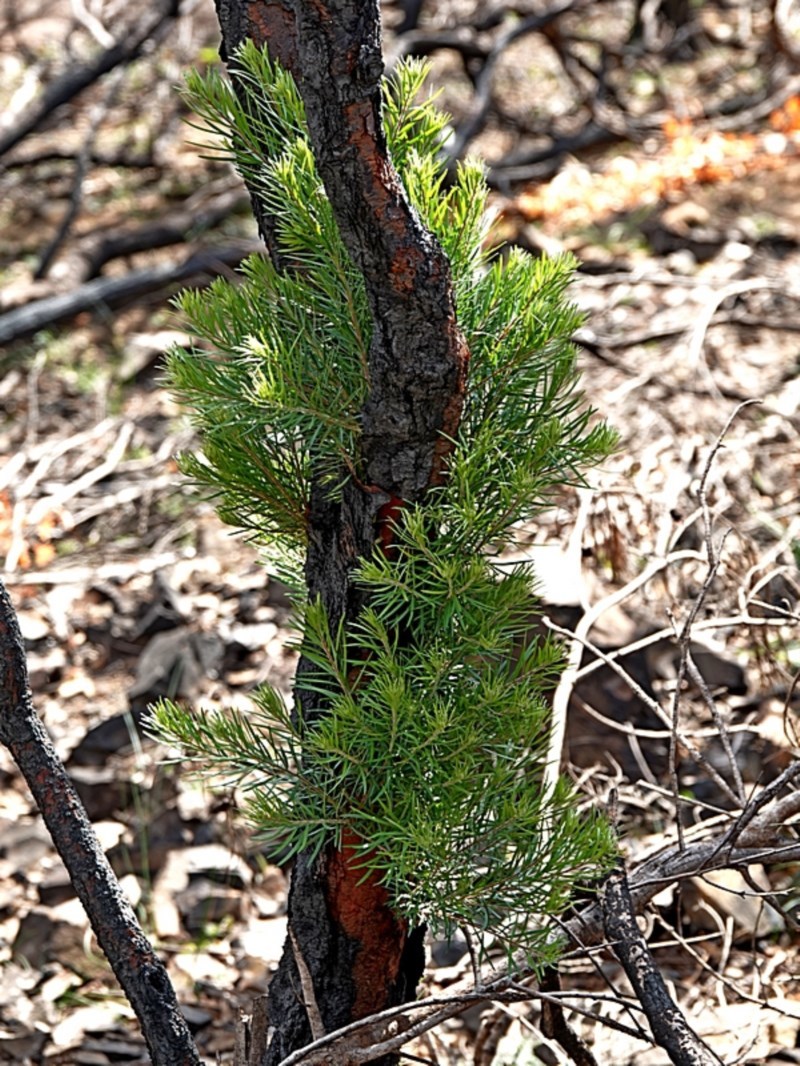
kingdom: Plantae
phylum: Tracheophyta
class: Magnoliopsida
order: Proteales
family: Proteaceae
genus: Persoonia
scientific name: Persoonia linearis
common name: Narrow-leaf geebung
